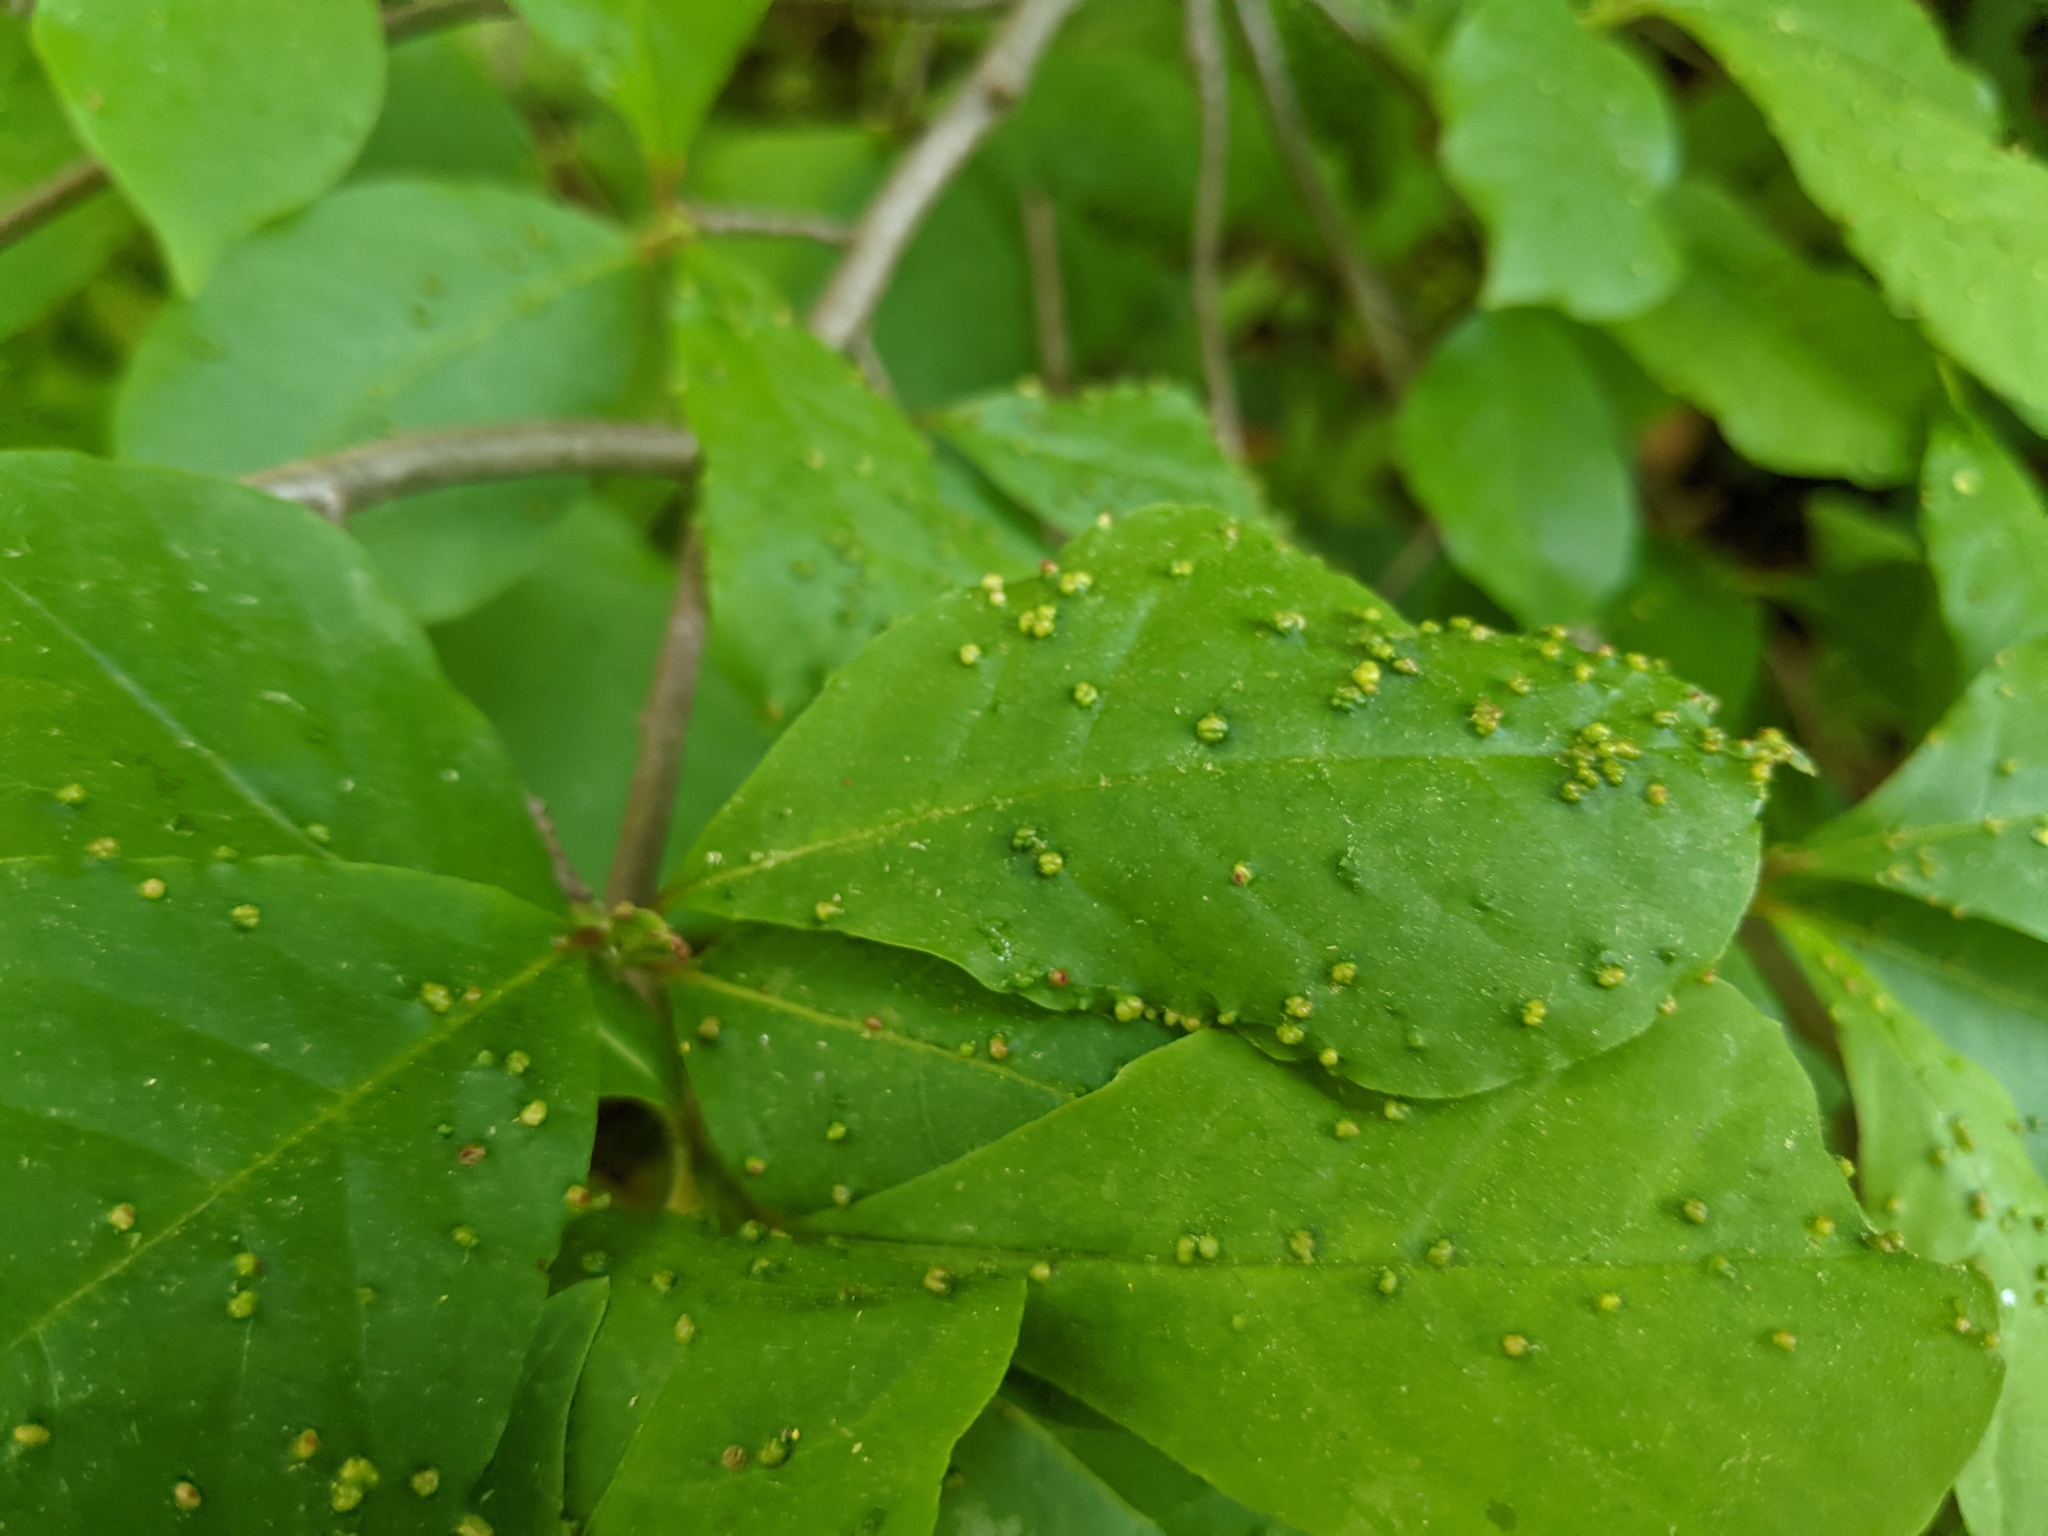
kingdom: Animalia
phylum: Arthropoda
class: Arachnida
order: Trombidiformes
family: Eriophyidae
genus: Aceria
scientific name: Aceria
